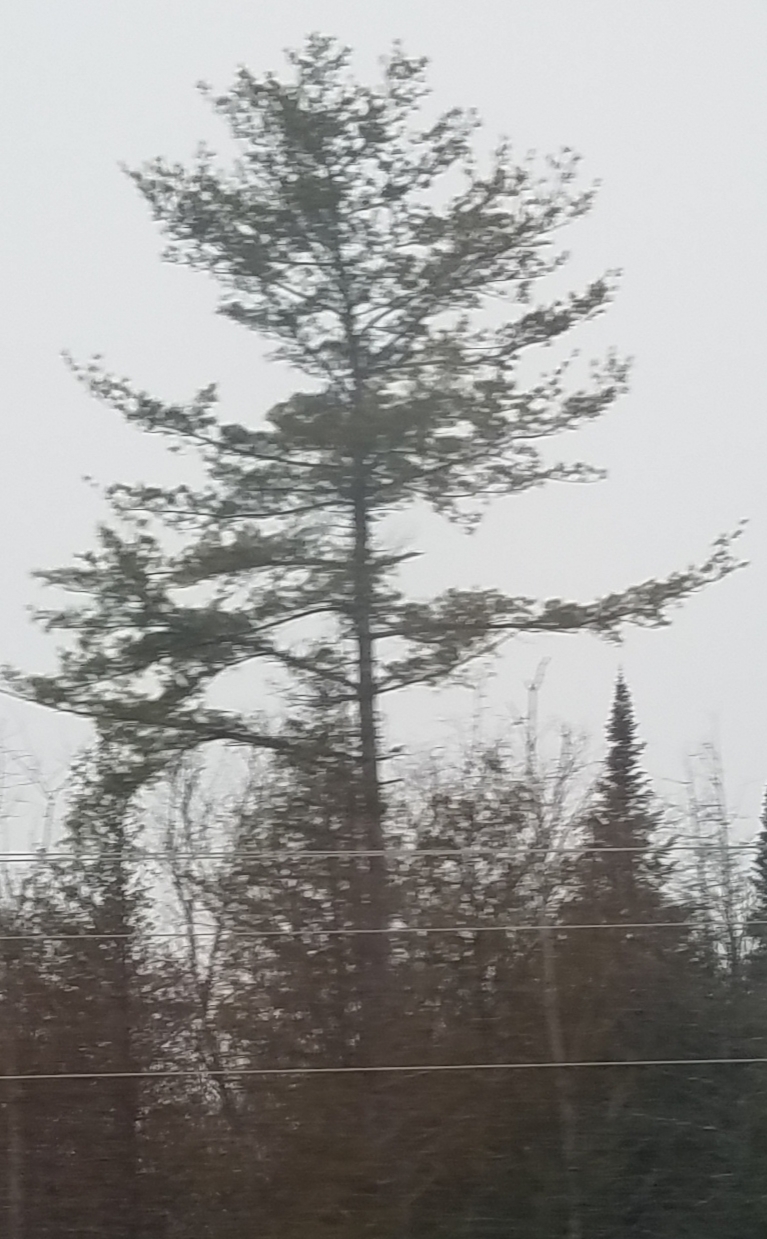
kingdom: Plantae
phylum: Tracheophyta
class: Pinopsida
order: Pinales
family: Pinaceae
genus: Pinus
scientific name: Pinus strobus
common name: Weymouth pine
